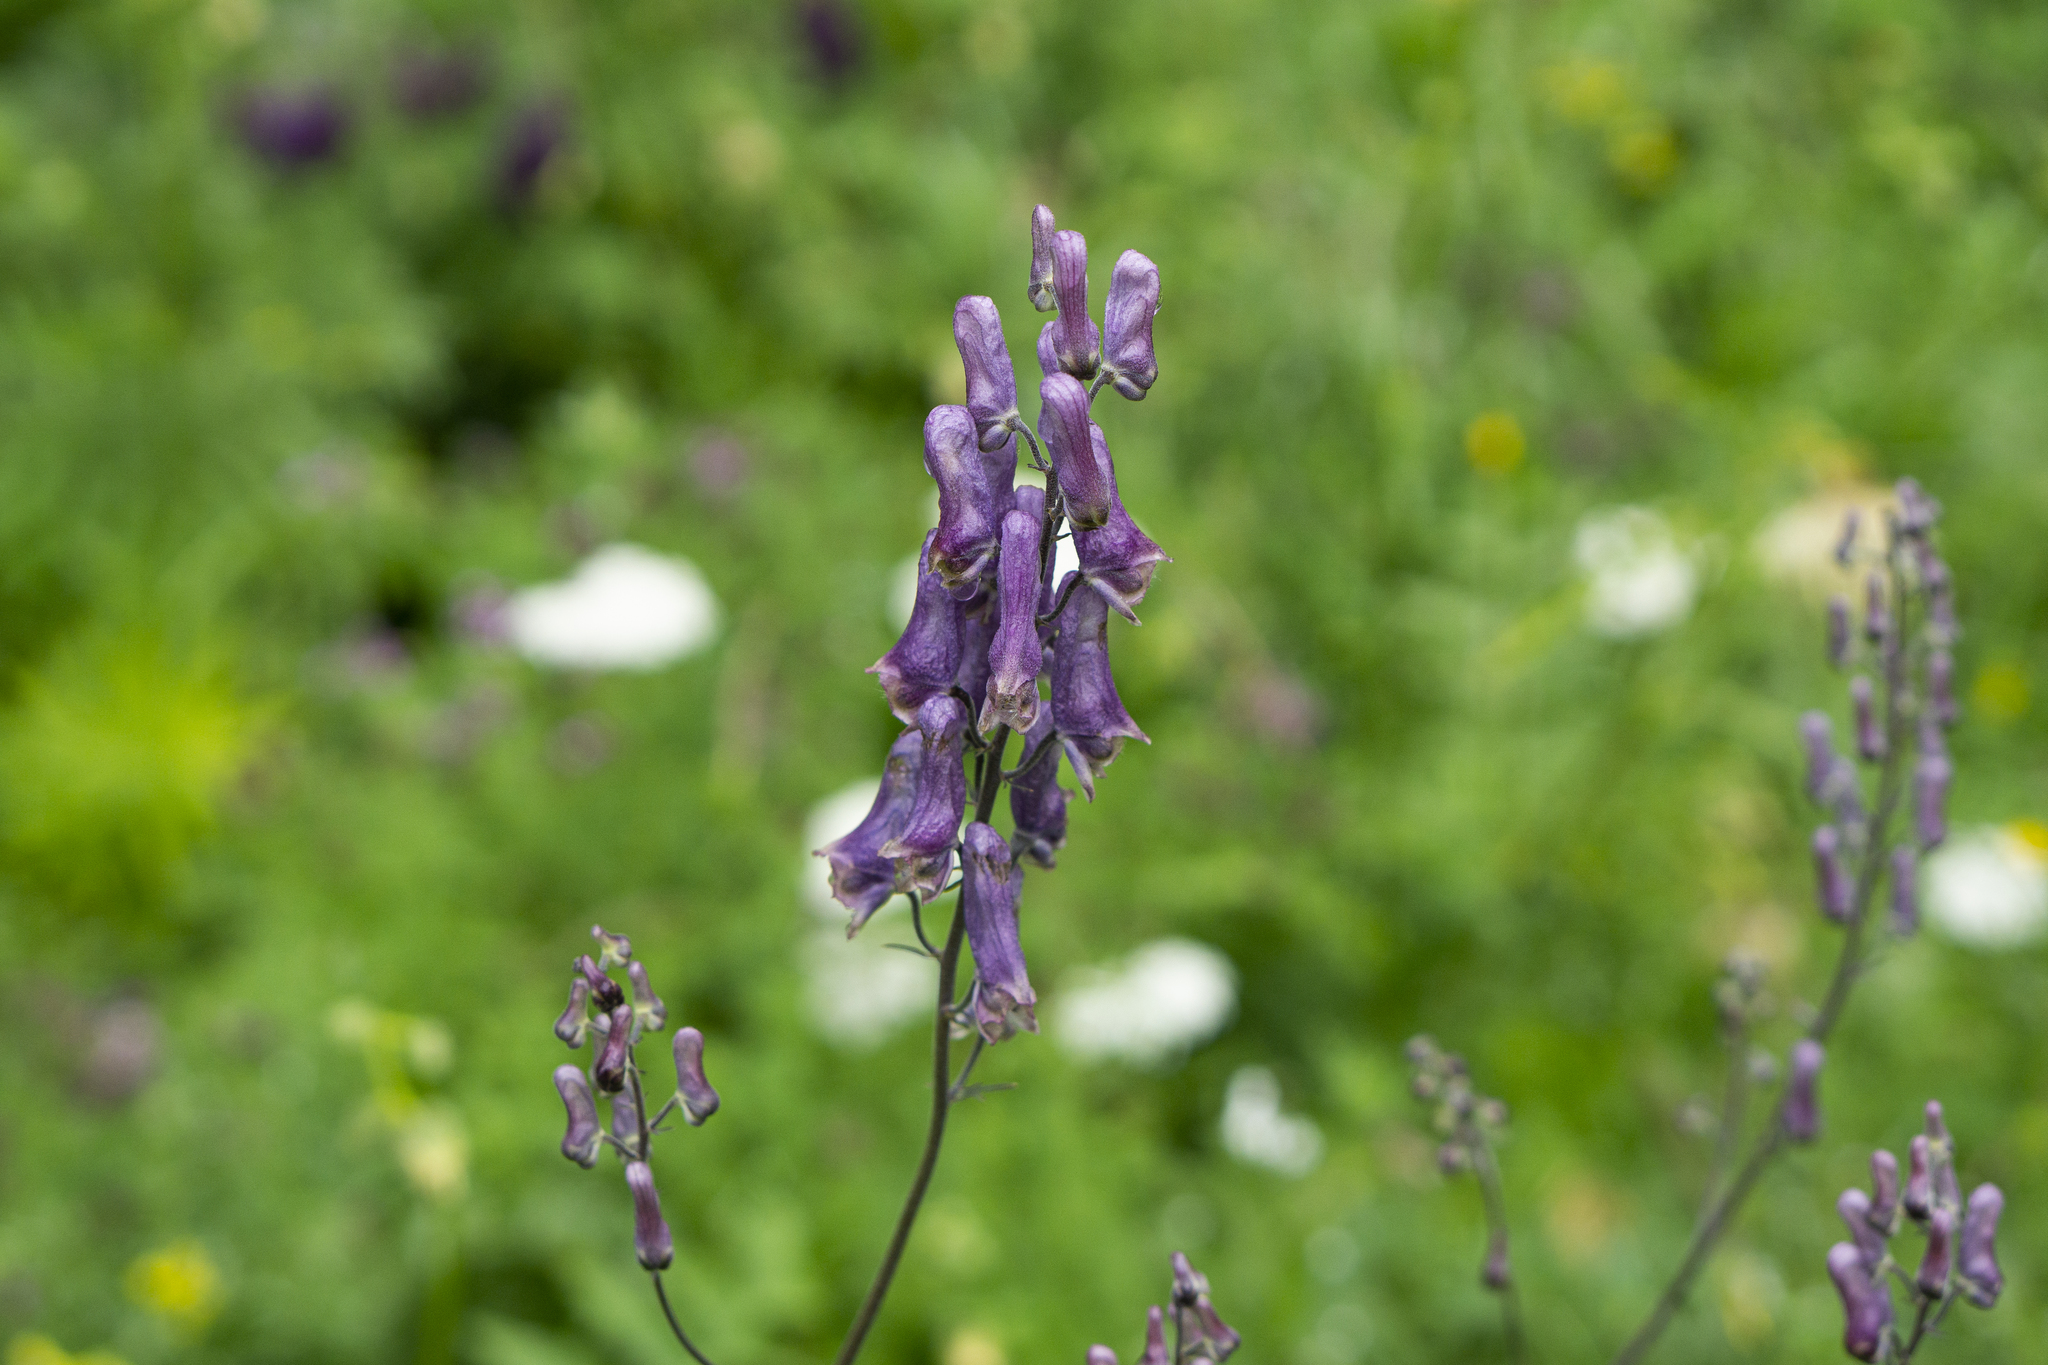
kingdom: Plantae
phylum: Tracheophyta
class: Magnoliopsida
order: Ranunculales
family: Ranunculaceae
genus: Aconitum
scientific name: Aconitum lycoctonum
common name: Wolf's-bane
